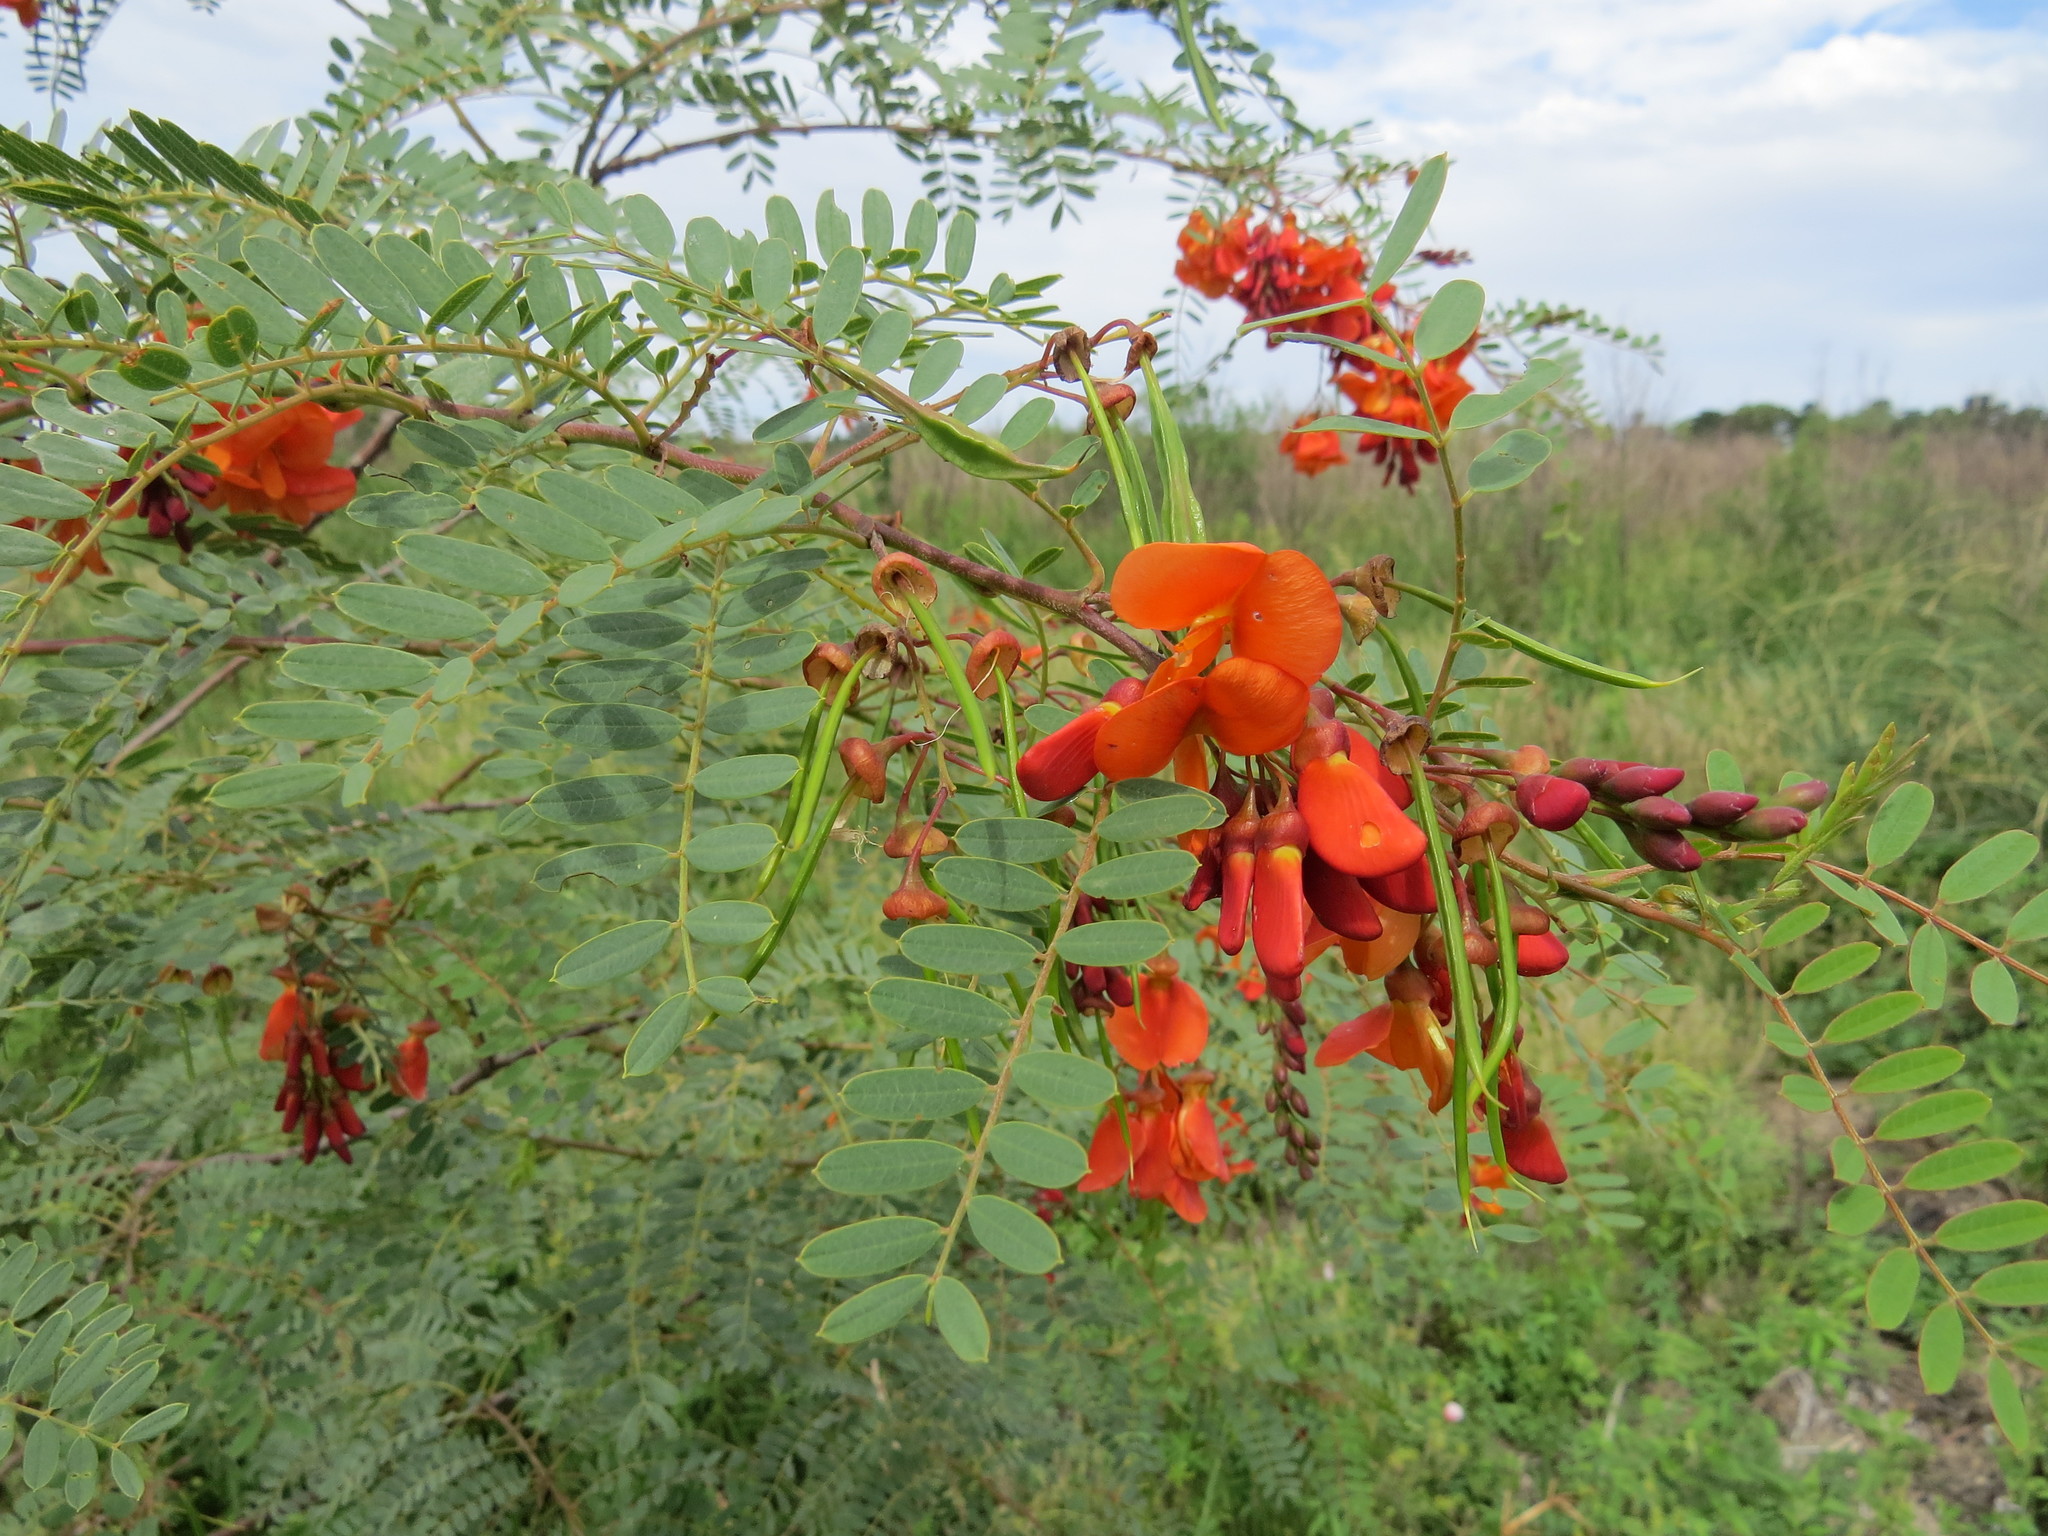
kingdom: Plantae
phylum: Tracheophyta
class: Magnoliopsida
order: Fabales
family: Fabaceae
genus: Sesbania
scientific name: Sesbania punicea
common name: Rattlebox
